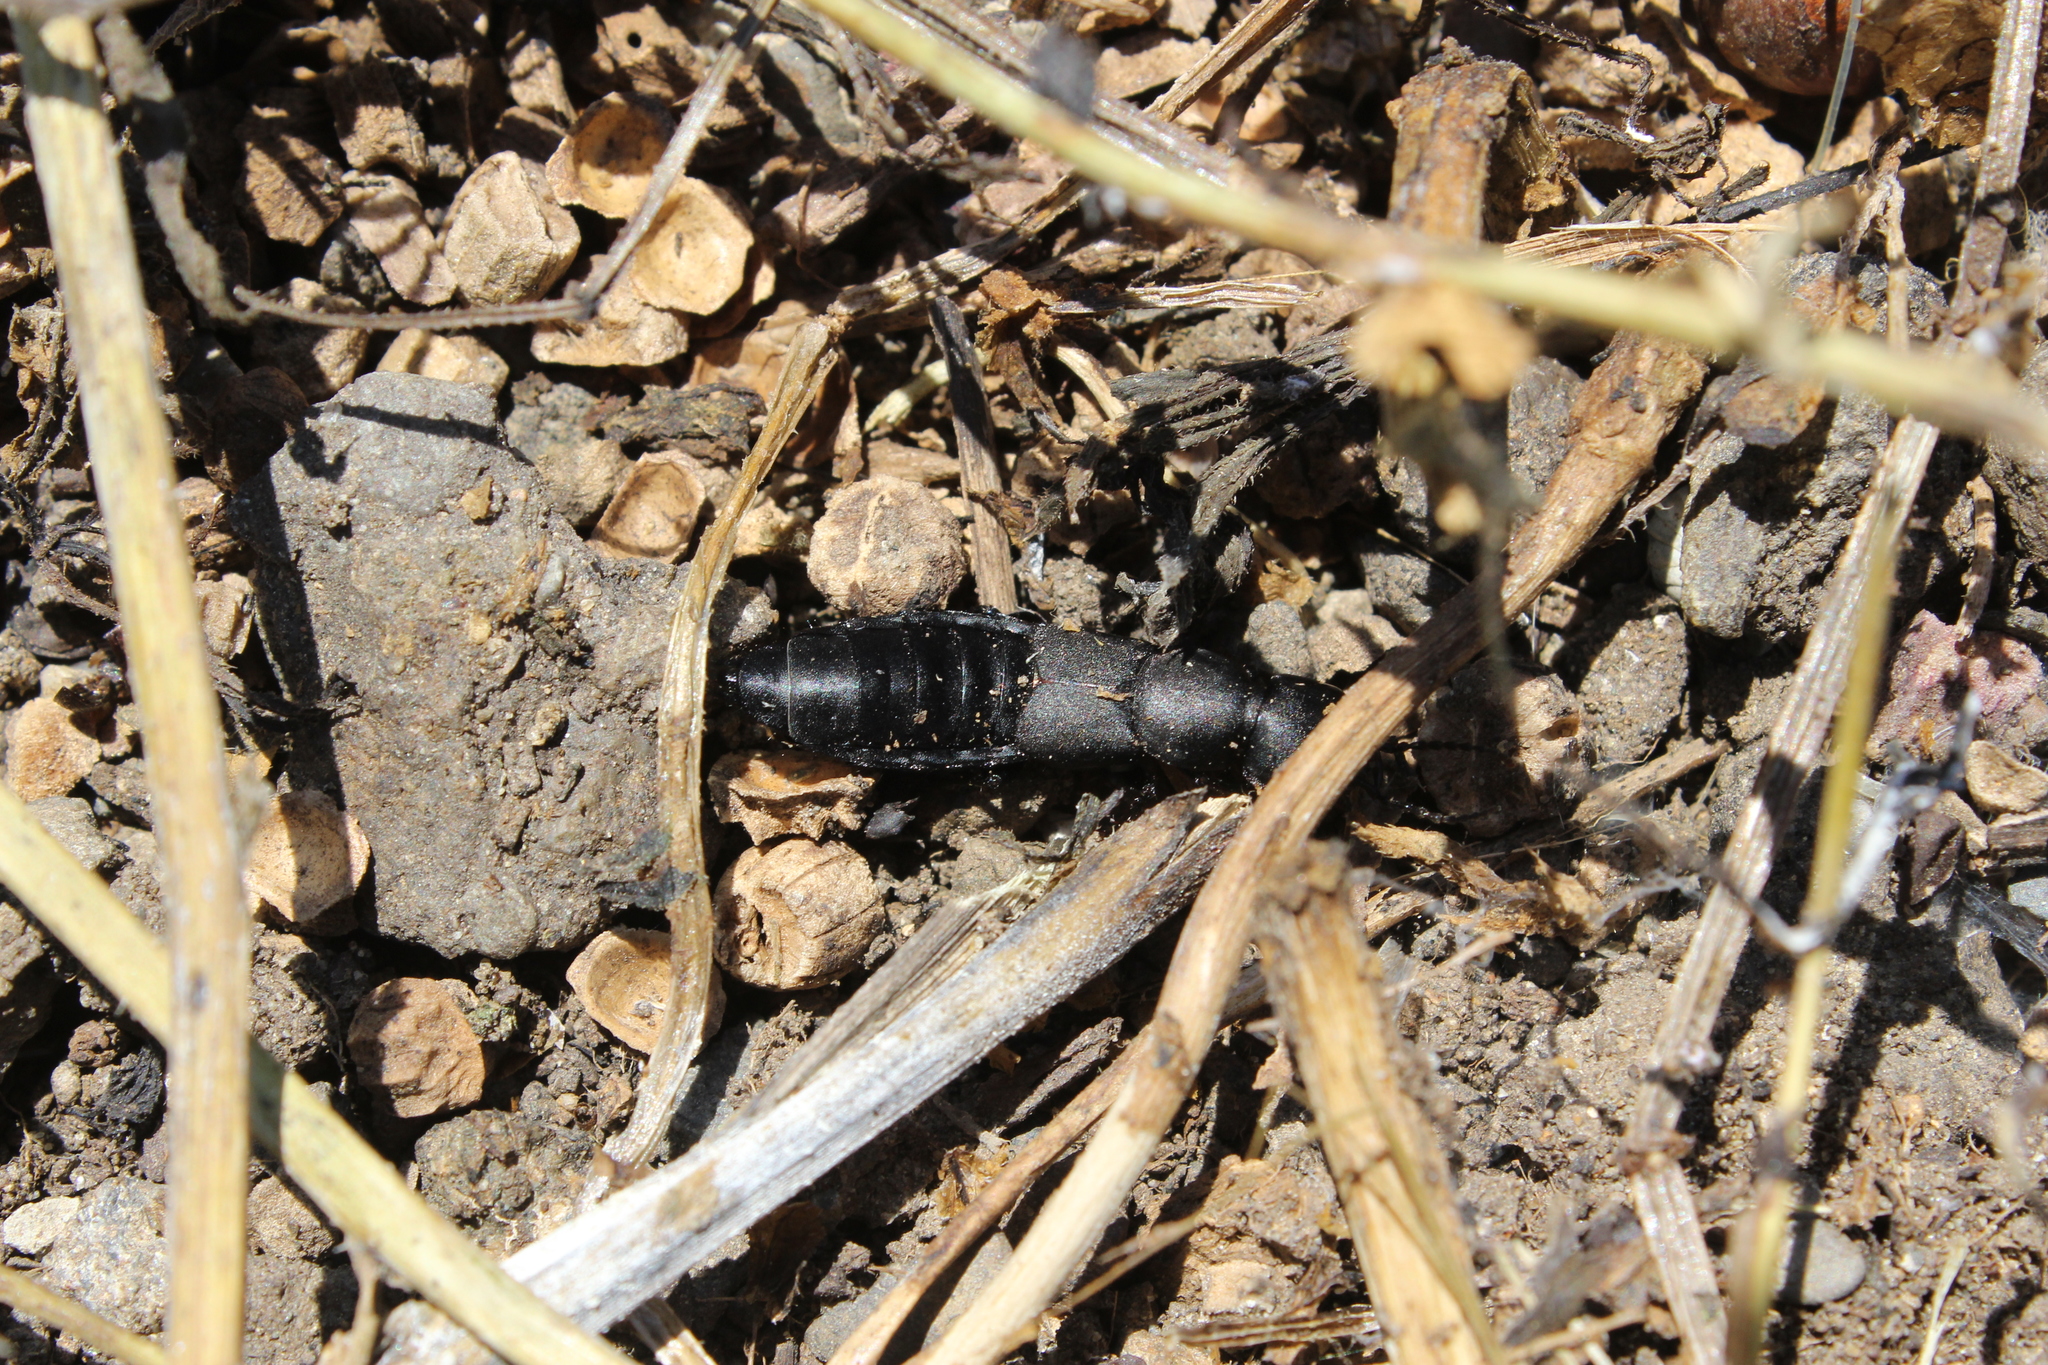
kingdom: Animalia
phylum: Arthropoda
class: Insecta
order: Coleoptera
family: Staphylinidae
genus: Ocypus
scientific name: Ocypus olens
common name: Devil's coach-horse
